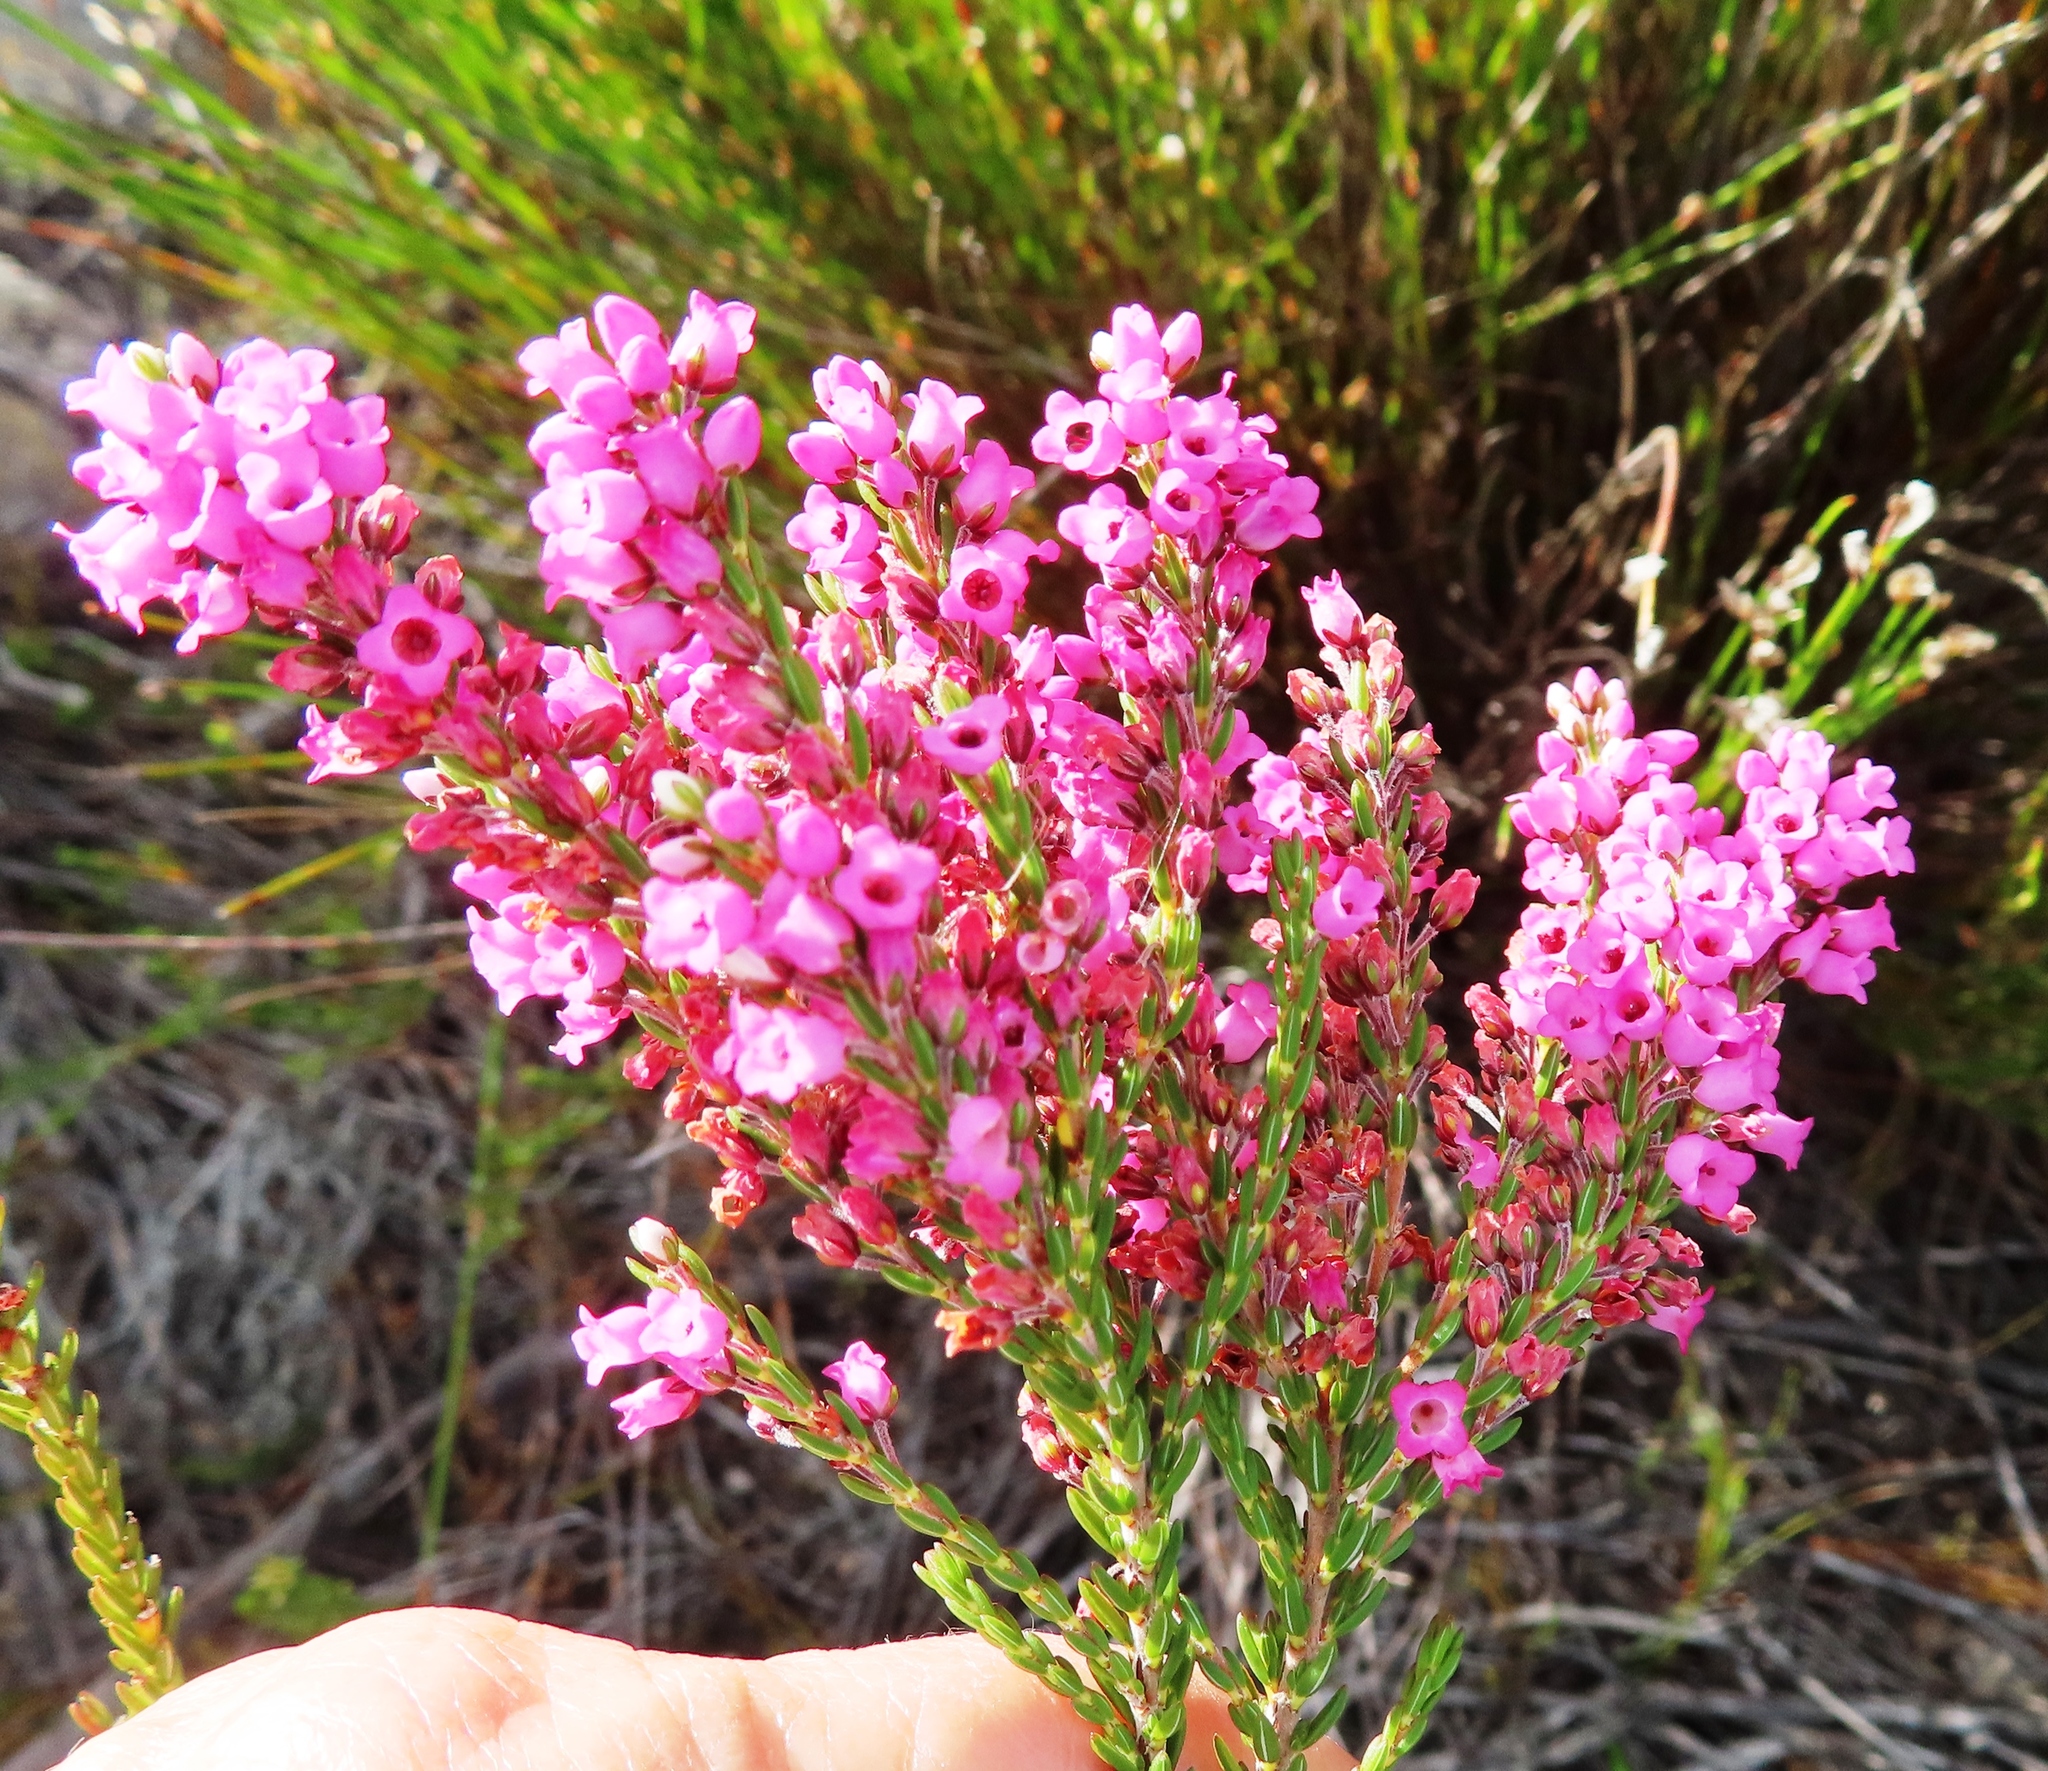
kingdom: Plantae
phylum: Tracheophyta
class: Magnoliopsida
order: Ericales
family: Ericaceae
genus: Erica
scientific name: Erica pulchella
